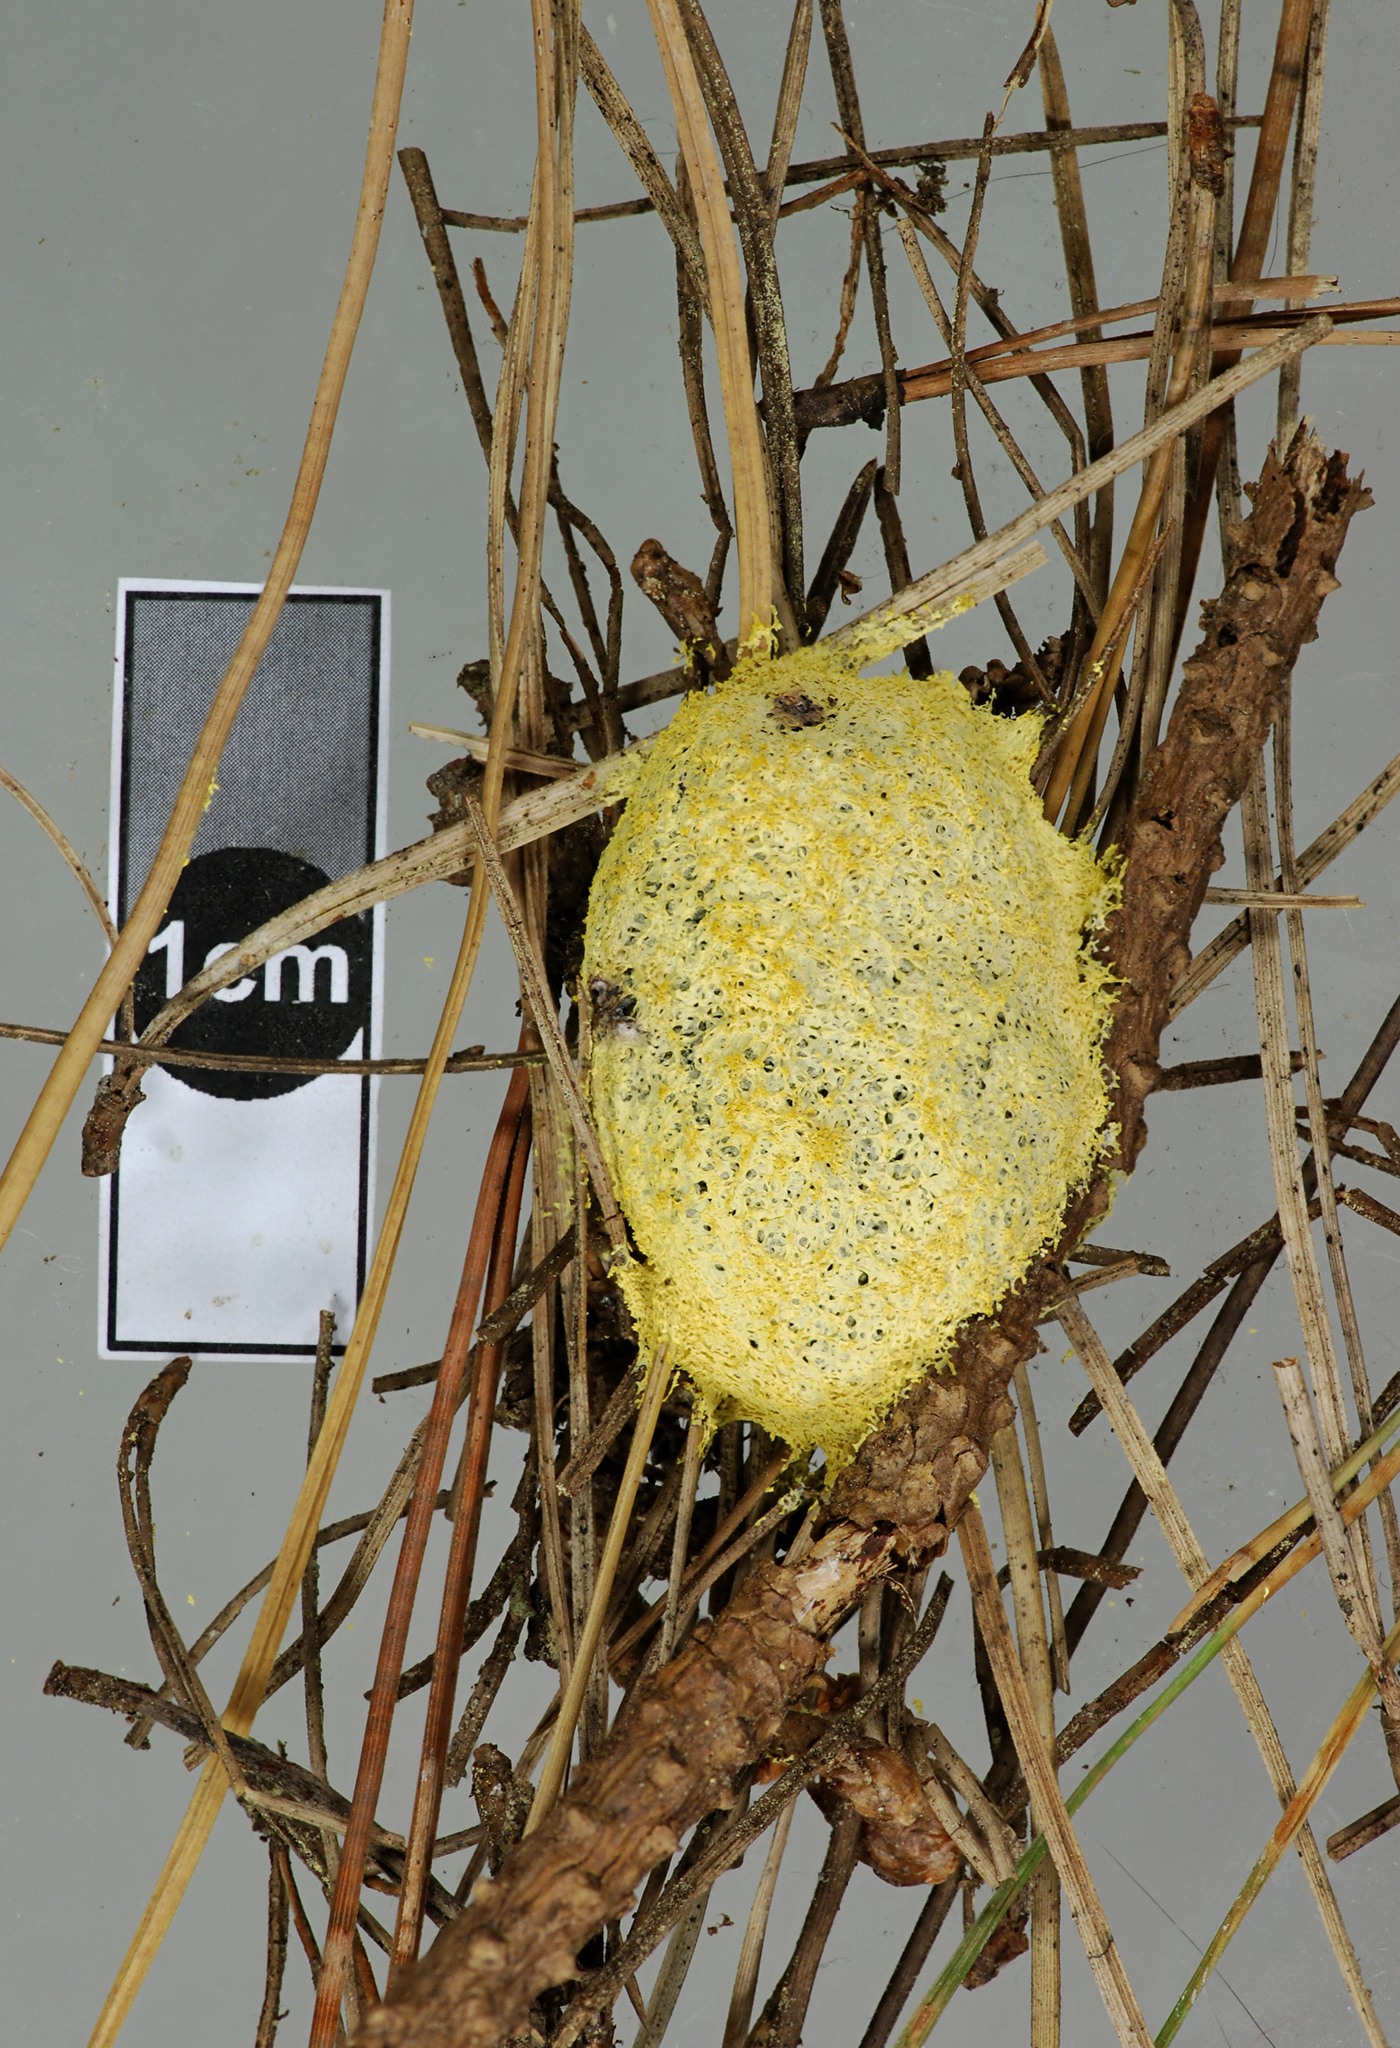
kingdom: Protozoa
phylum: Mycetozoa
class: Myxomycetes
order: Physarales
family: Physaraceae
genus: Fuligo
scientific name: Fuligo septica
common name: Dog vomit slime mold
